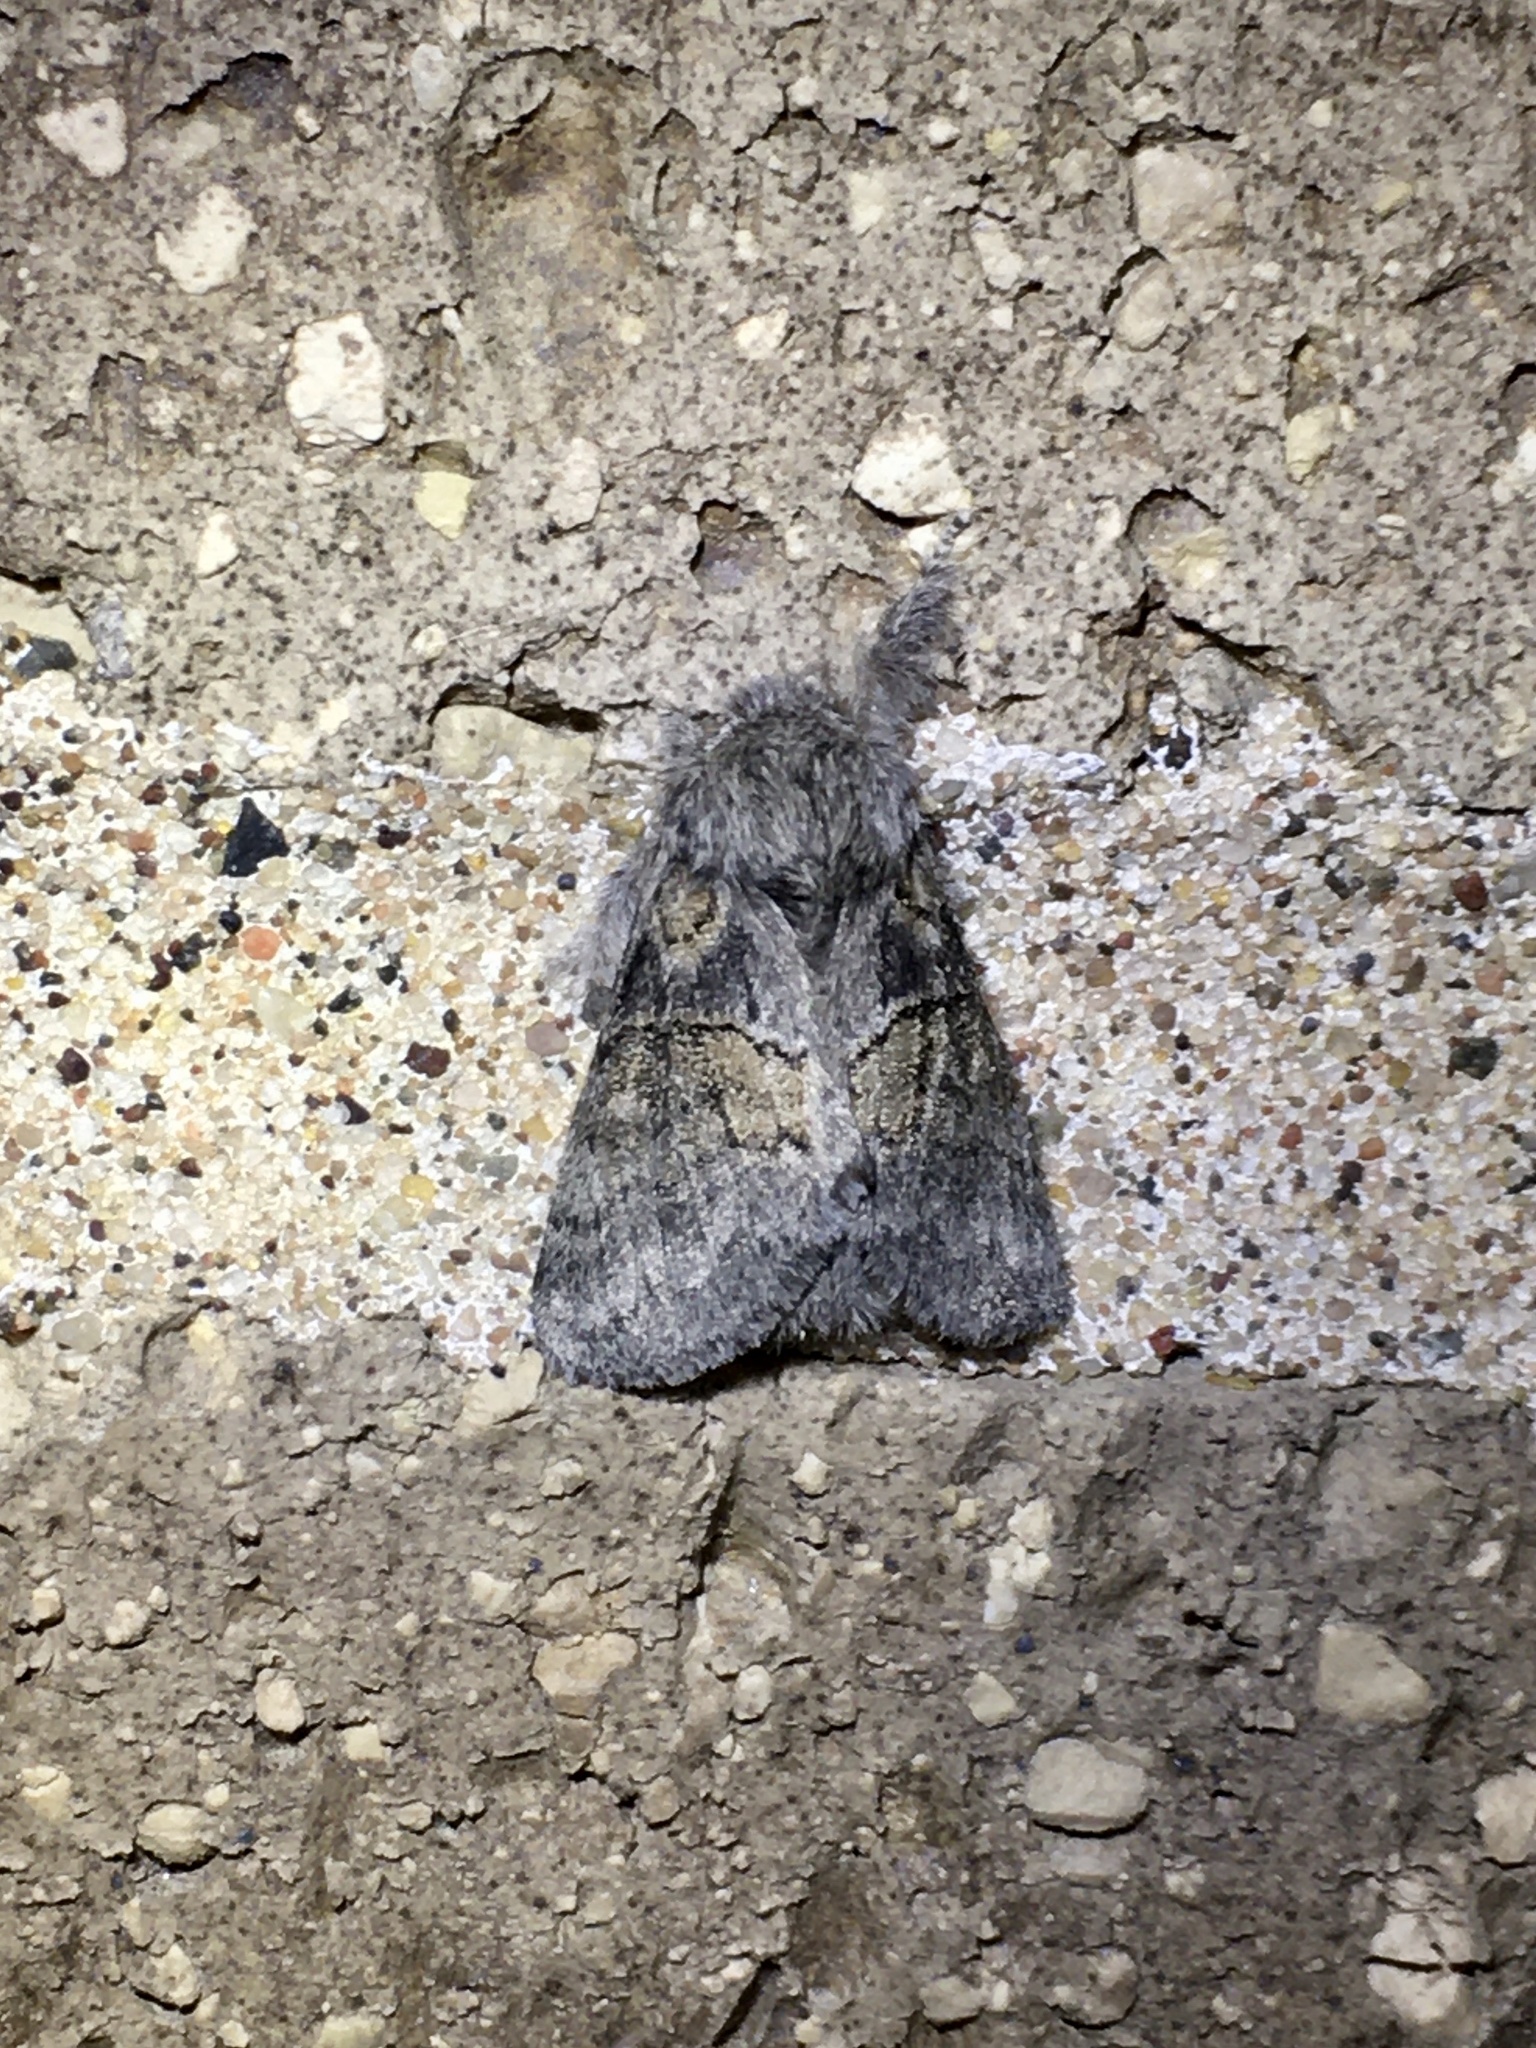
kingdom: Animalia
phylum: Arthropoda
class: Insecta
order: Lepidoptera
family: Notodontidae
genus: Gluphisia
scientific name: Gluphisia septentrionis
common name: Common gluphisia
